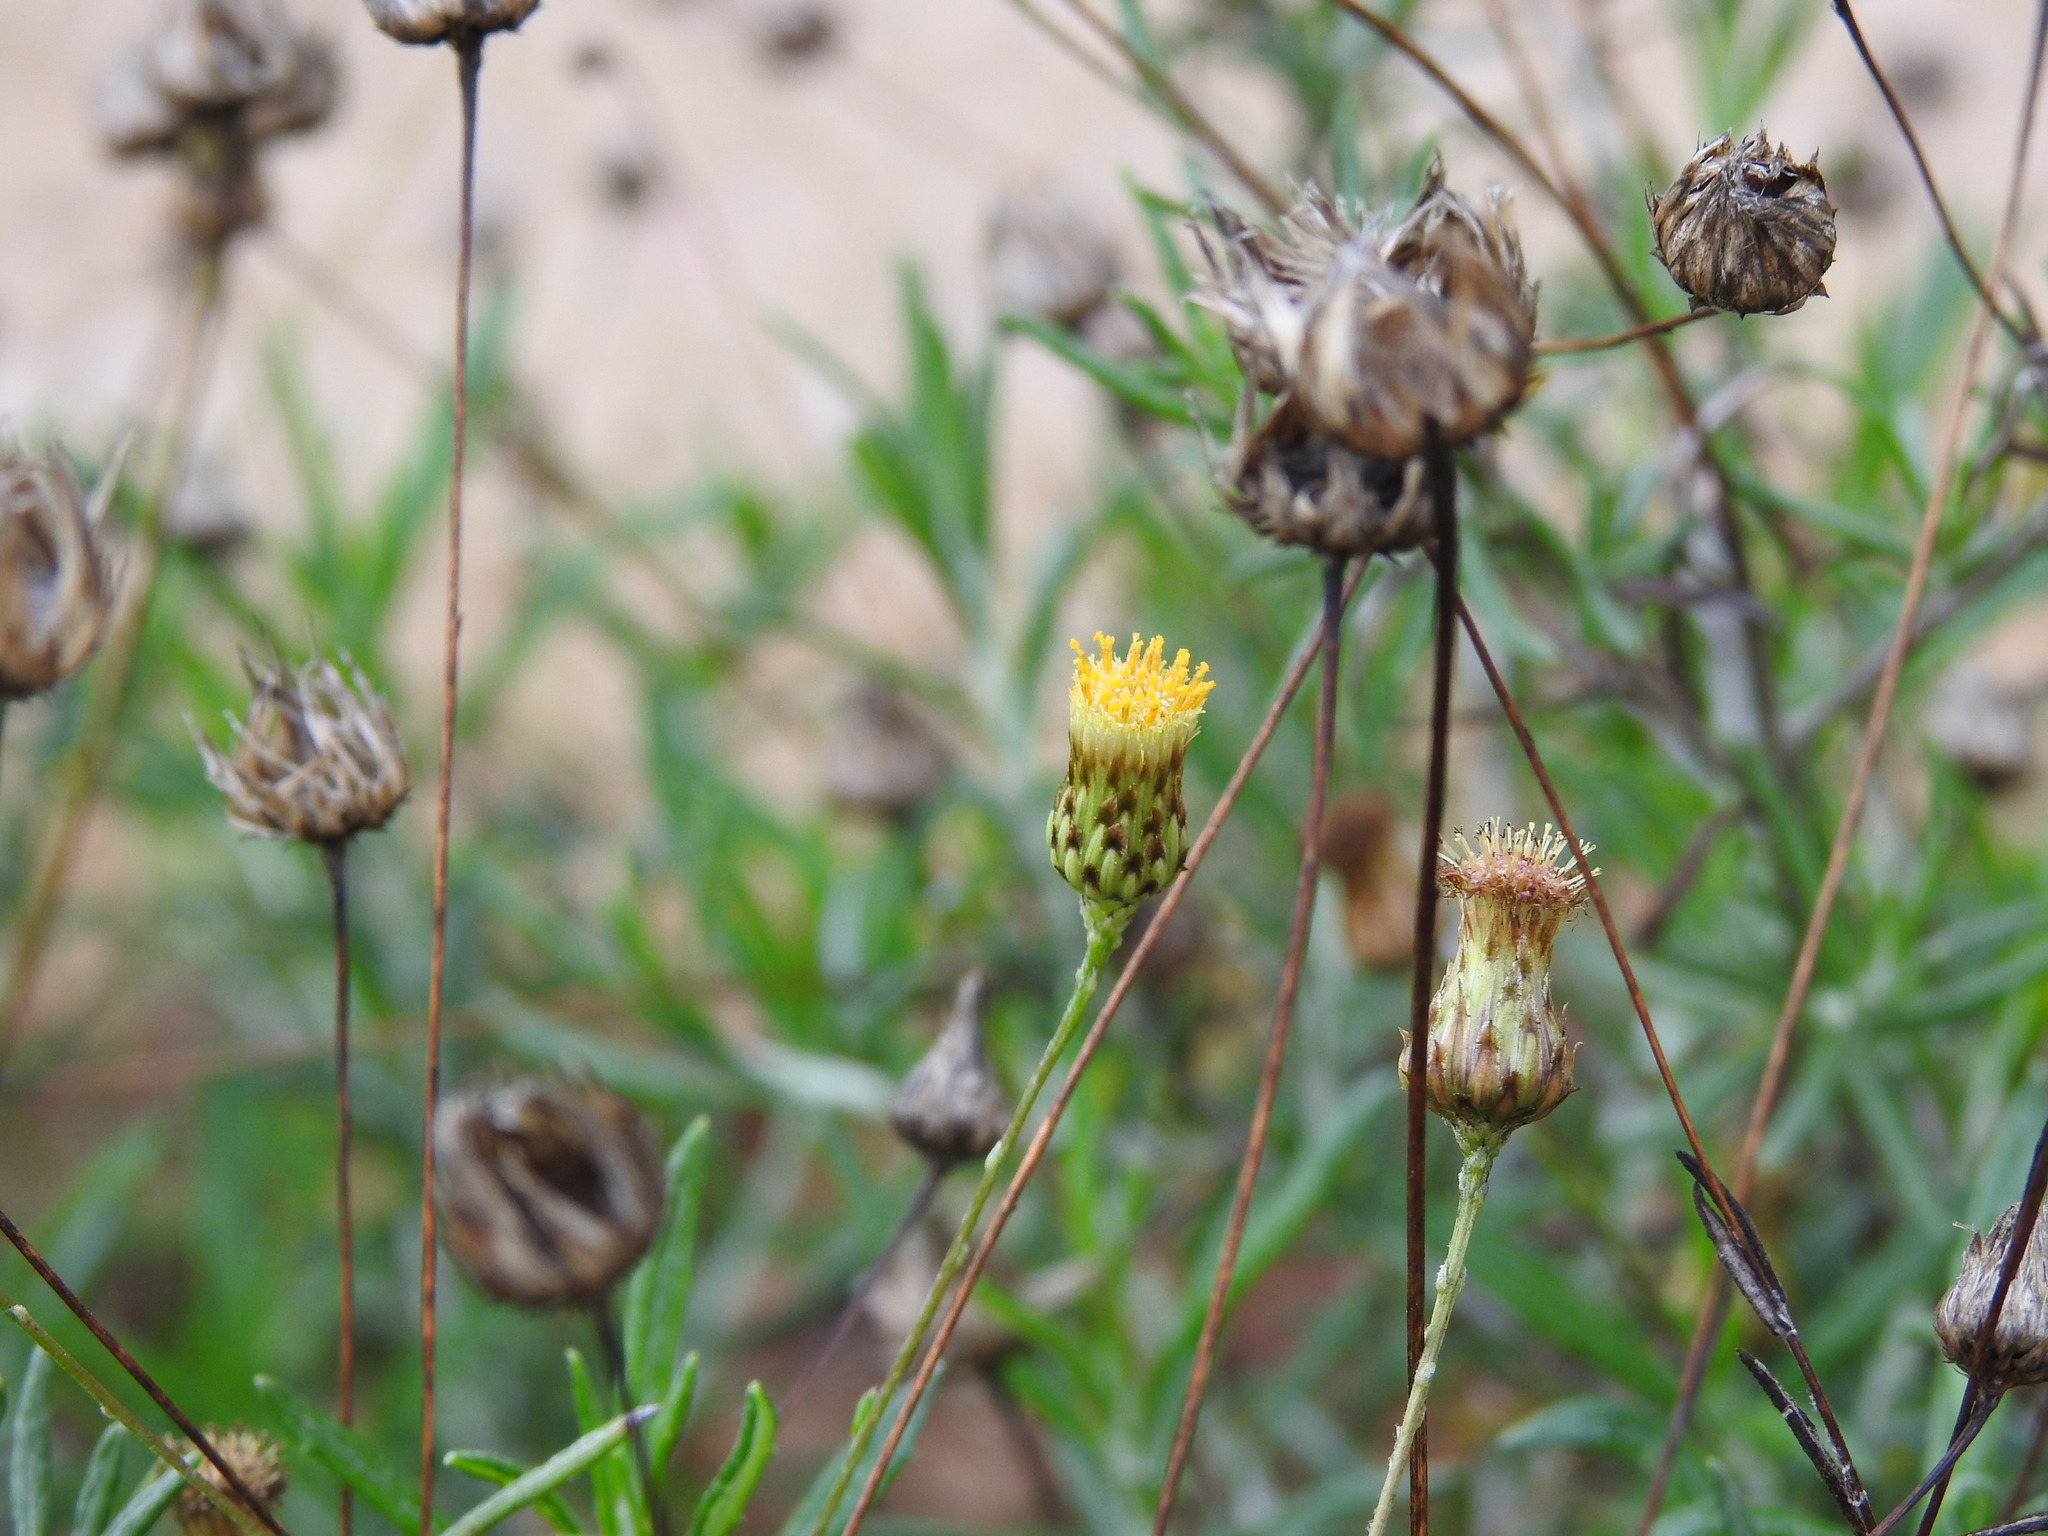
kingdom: Plantae
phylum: Tracheophyta
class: Magnoliopsida
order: Asterales
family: Asteraceae
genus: Phagnalon
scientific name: Phagnalon saxatile
